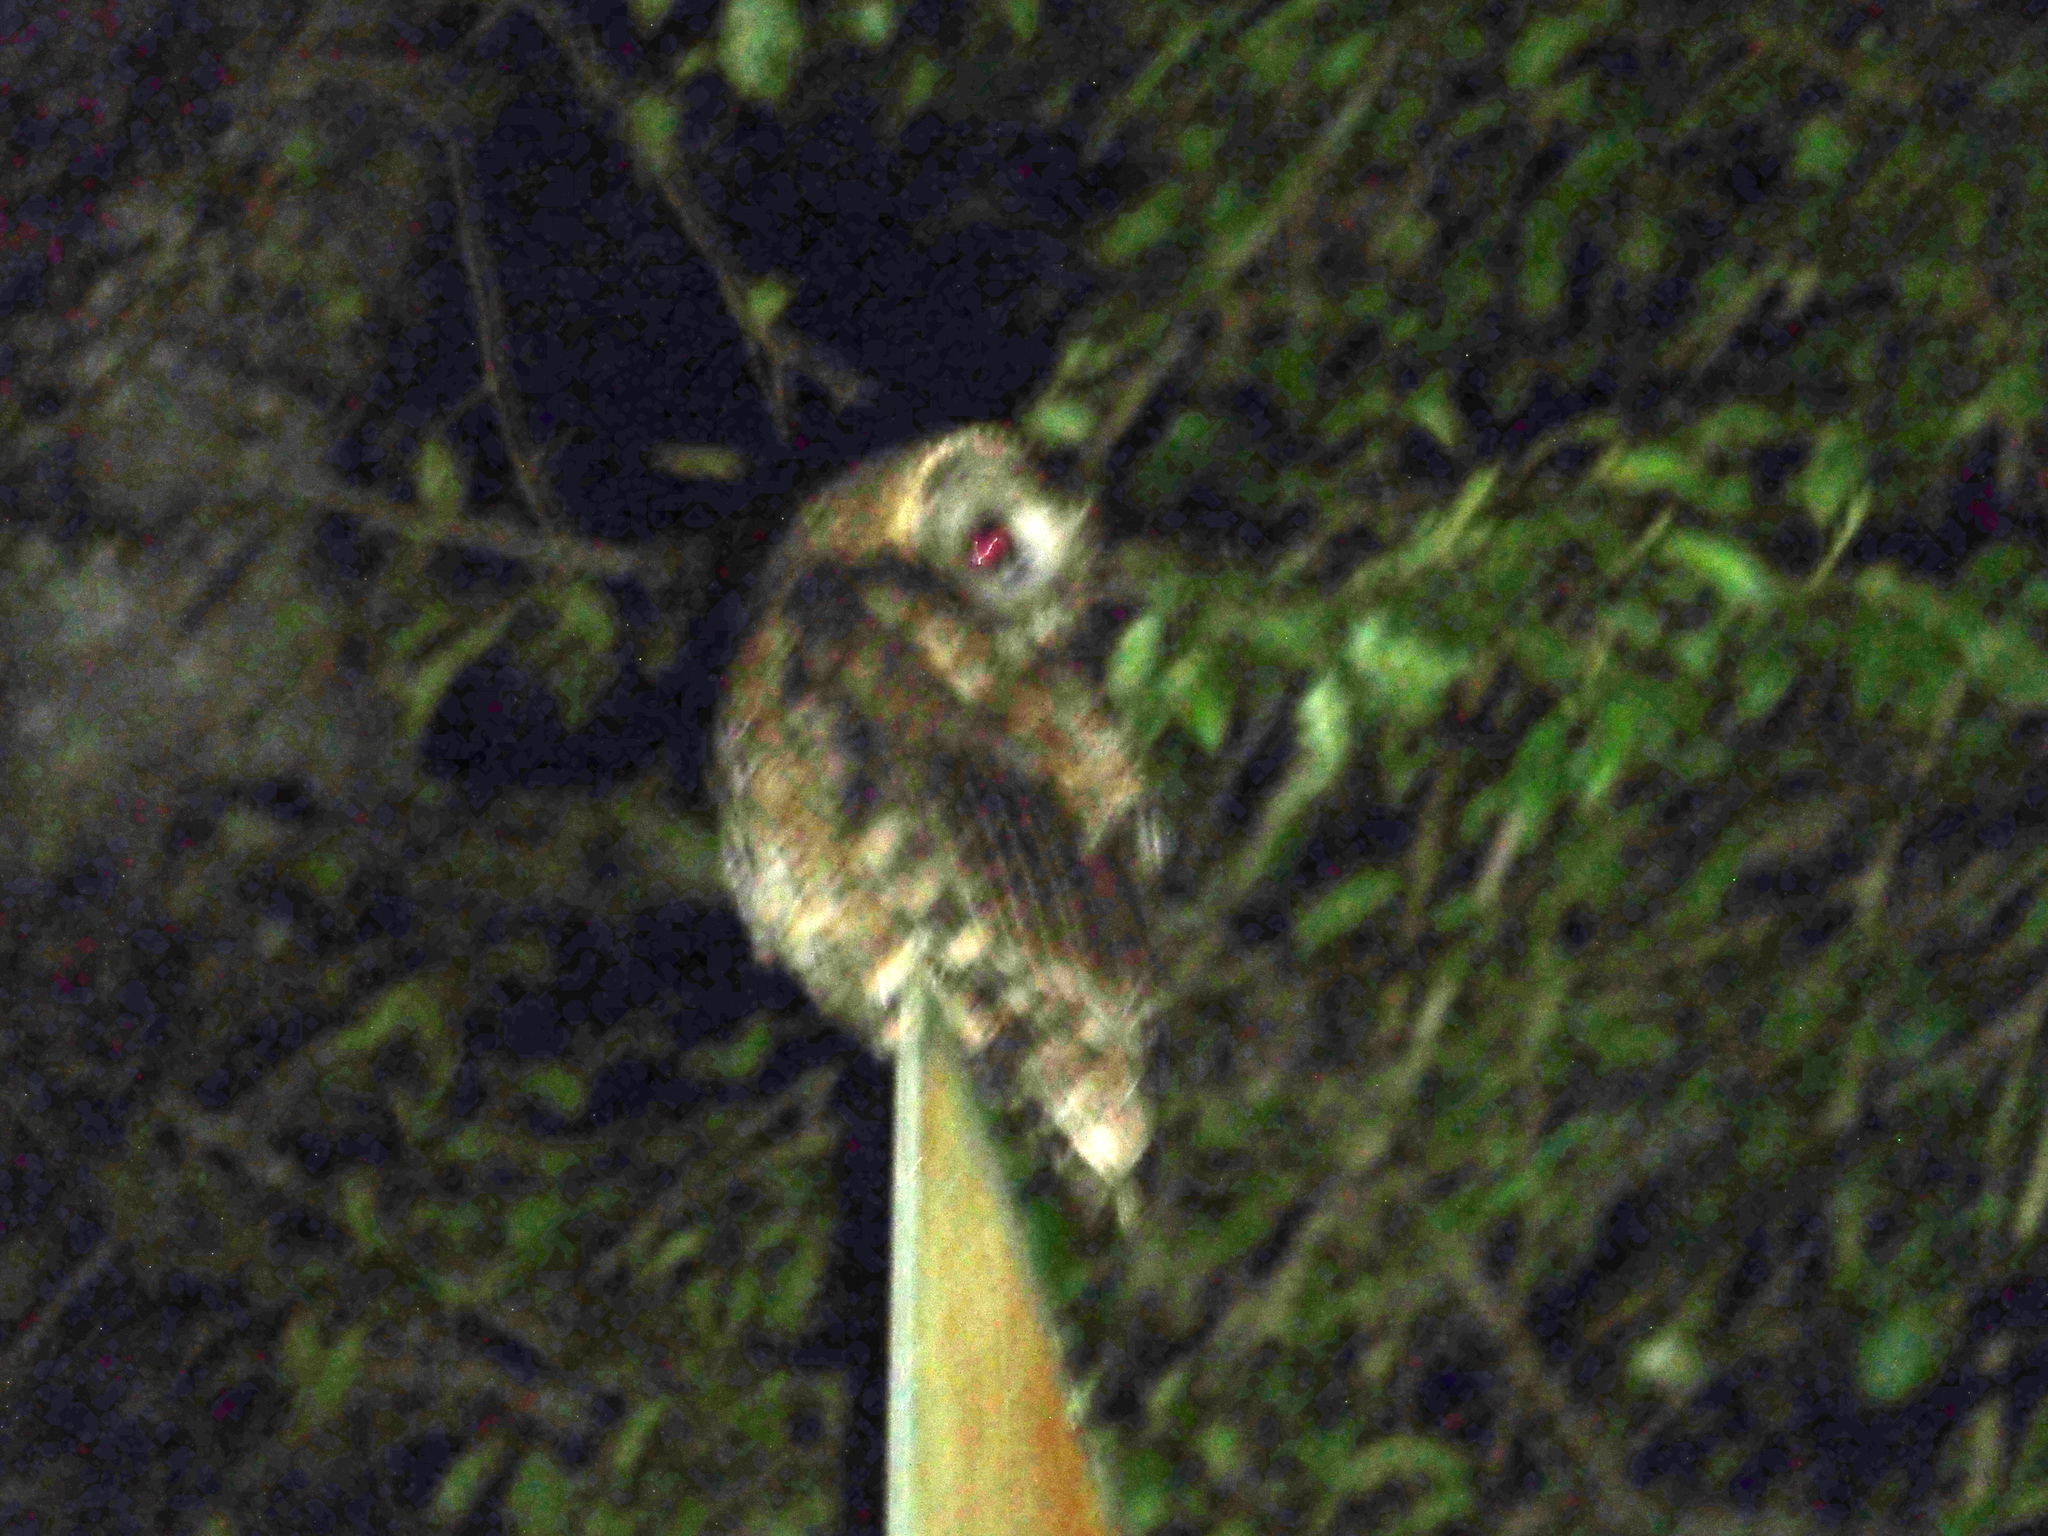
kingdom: Animalia
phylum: Chordata
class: Aves
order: Strigiformes
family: Strigidae
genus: Strix
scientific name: Strix nivicolum
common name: Himalayan owl
